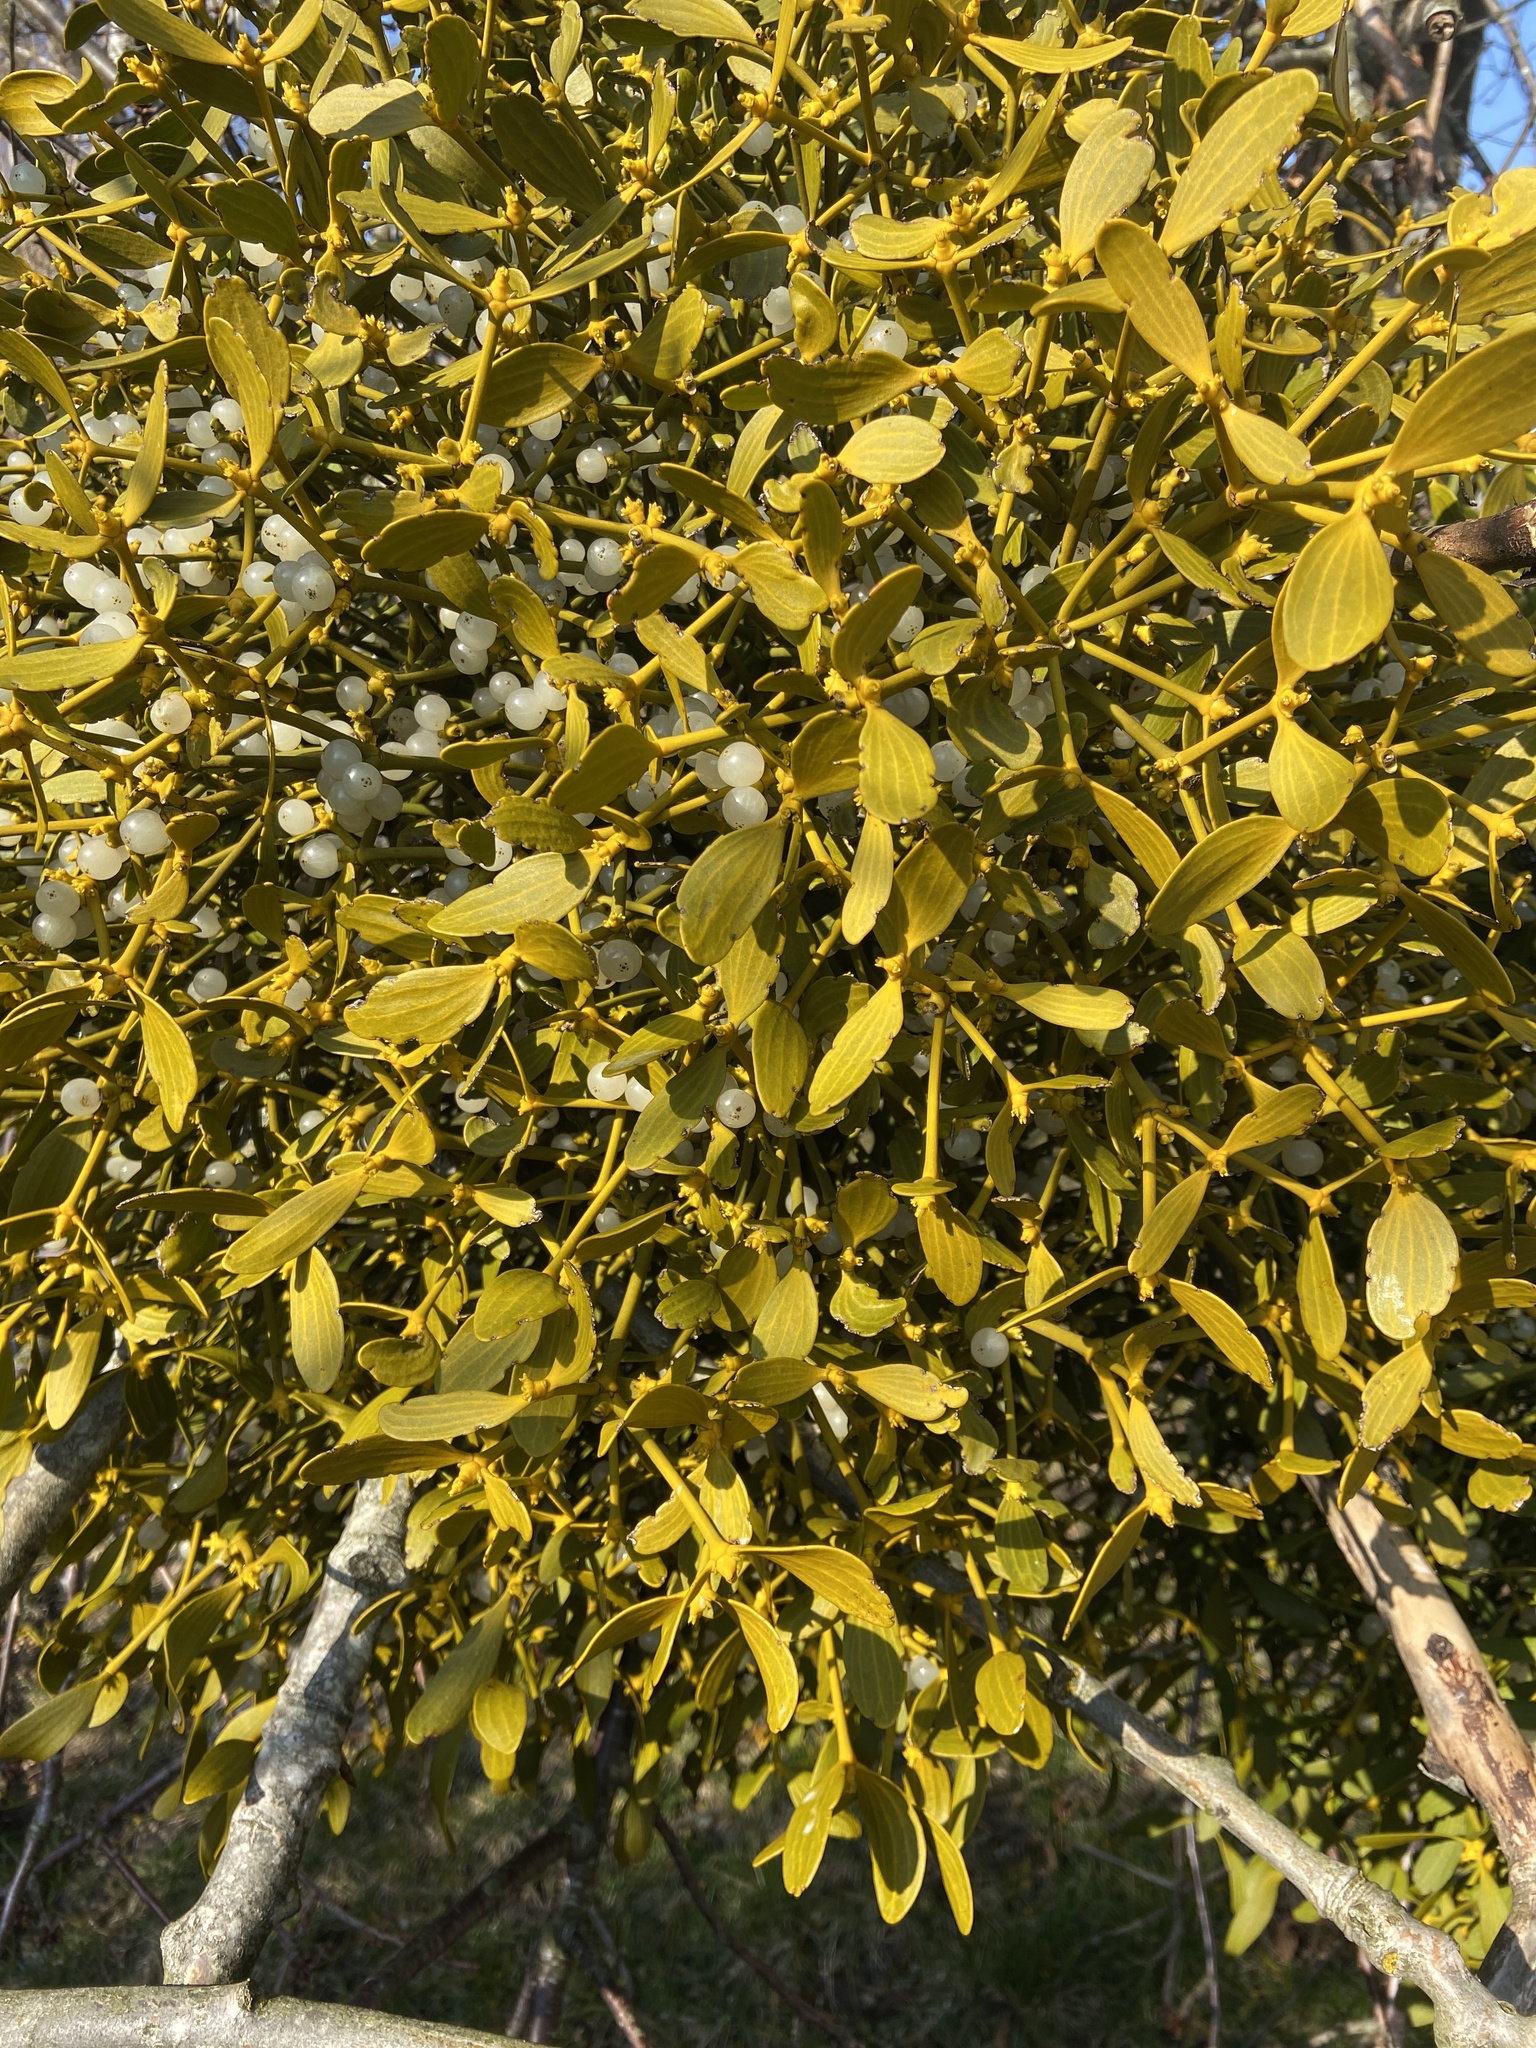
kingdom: Plantae
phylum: Tracheophyta
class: Magnoliopsida
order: Santalales
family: Viscaceae
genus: Viscum
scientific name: Viscum album
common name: Mistletoe
